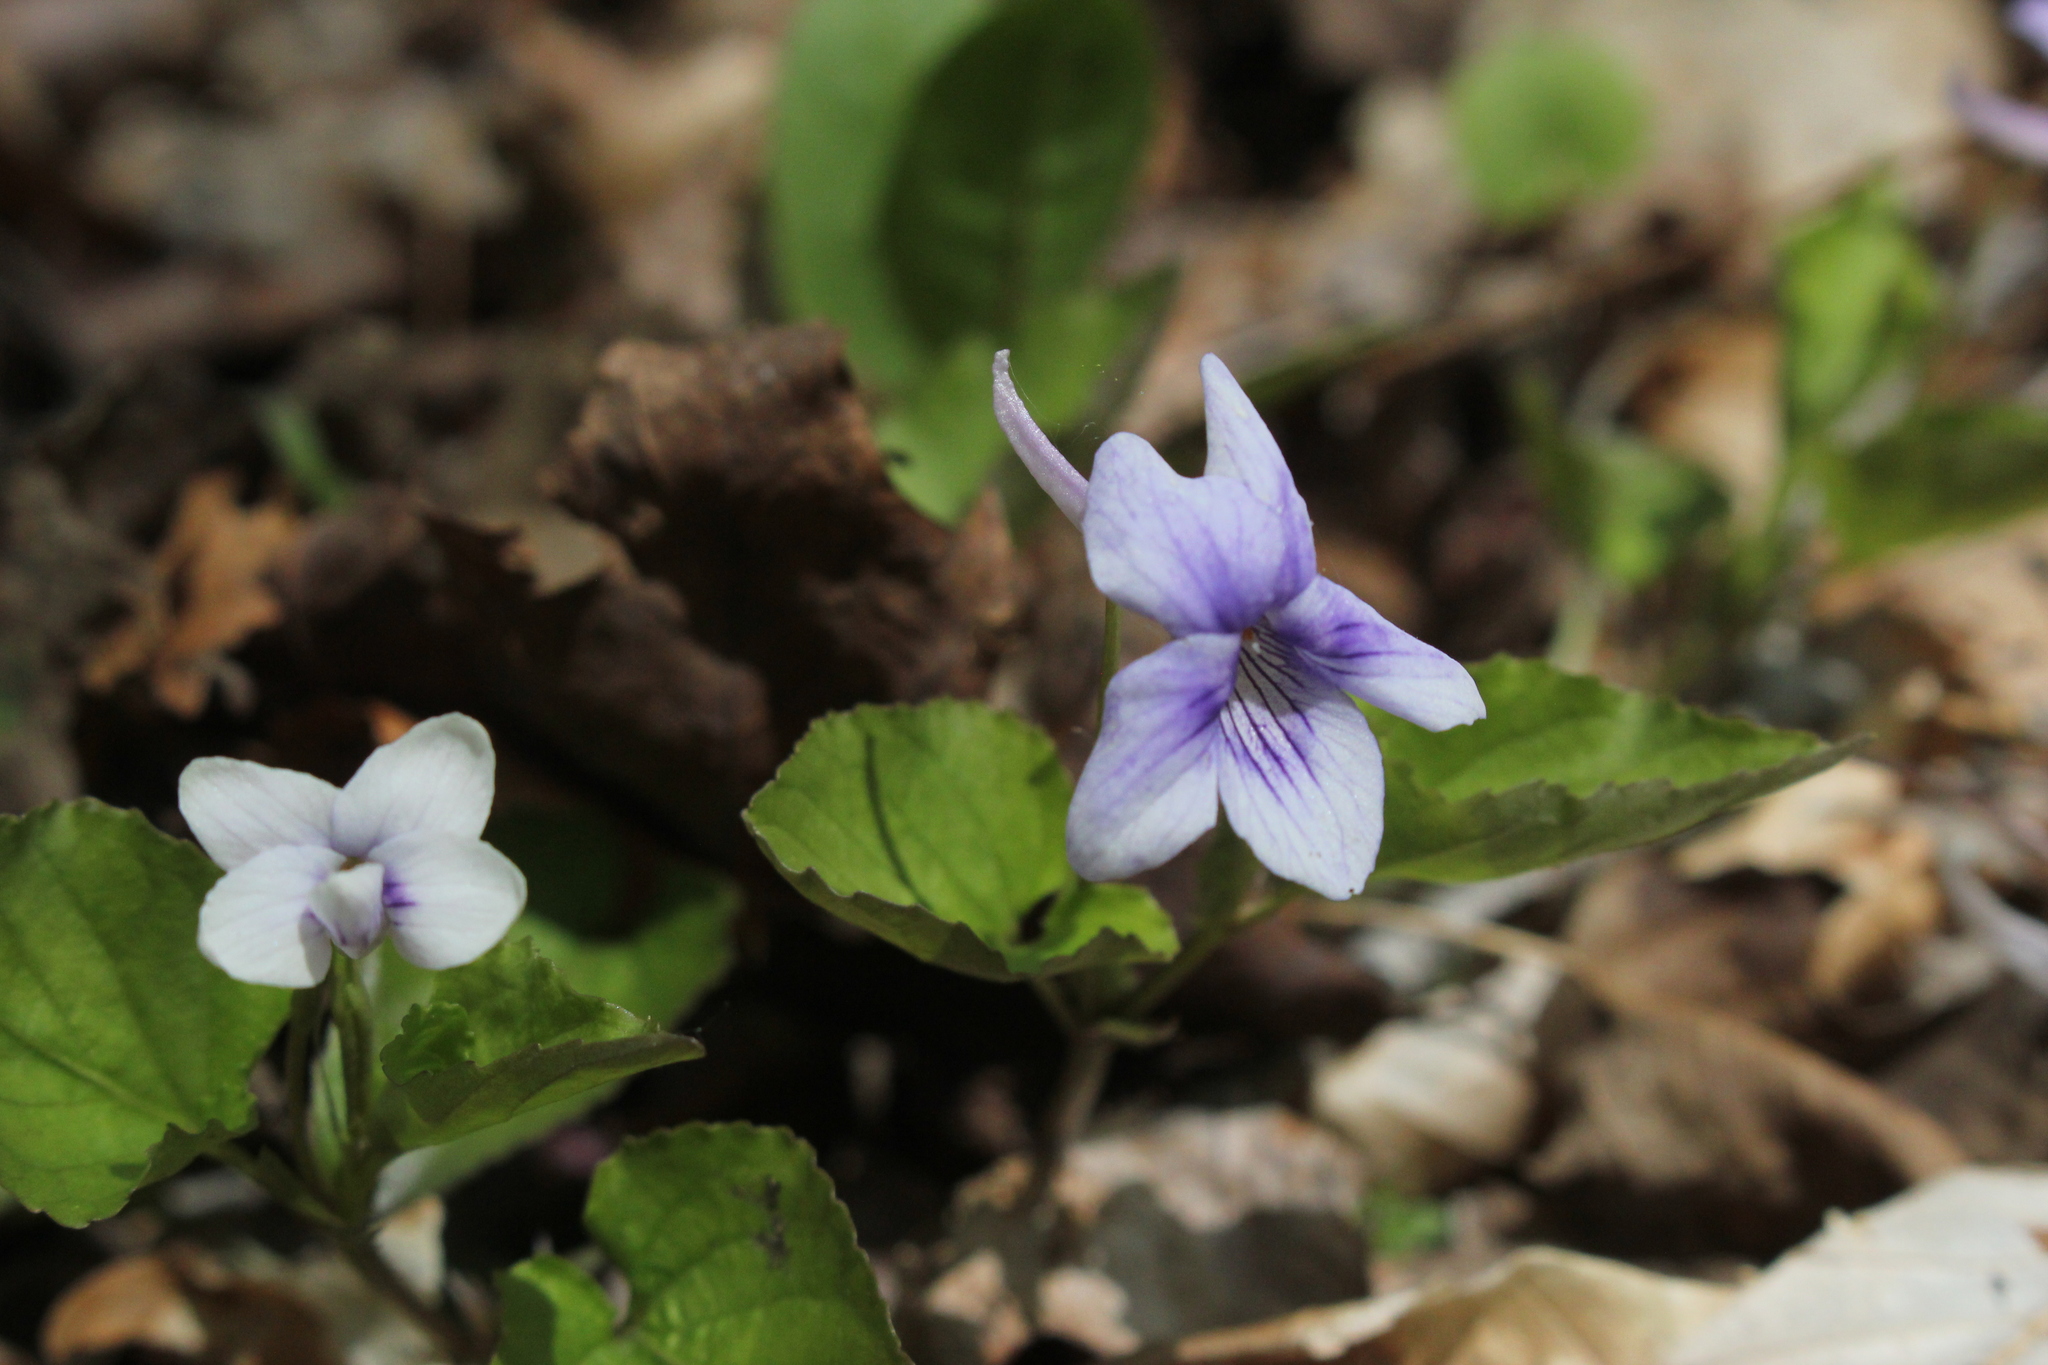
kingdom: Plantae
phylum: Tracheophyta
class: Magnoliopsida
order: Malpighiales
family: Violaceae
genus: Viola
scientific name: Viola rostrata
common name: Long-spur violet
